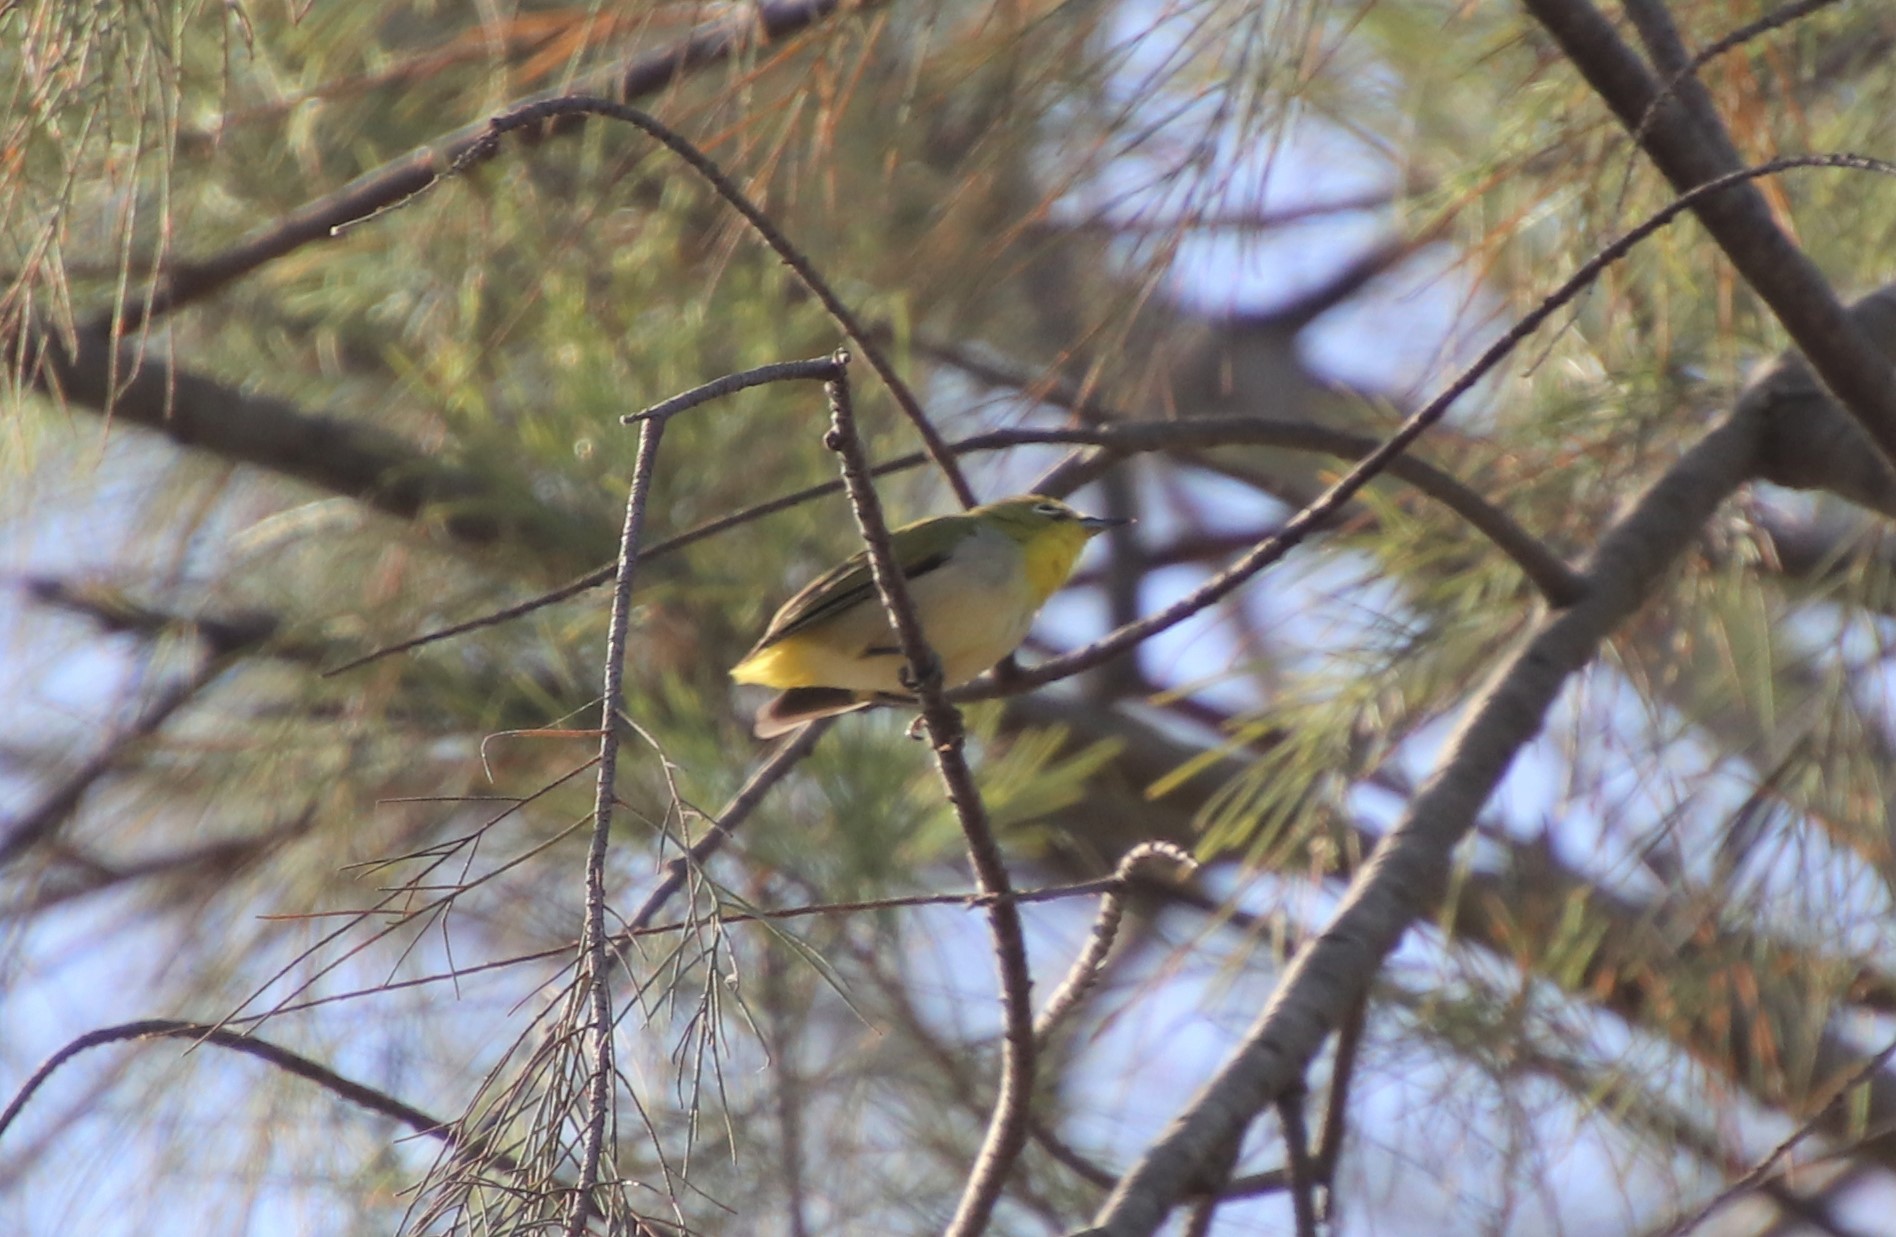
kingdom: Animalia
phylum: Chordata
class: Aves
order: Passeriformes
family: Zosteropidae
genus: Zosterops
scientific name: Zosterops simplex
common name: Swinhoe's white-eye
